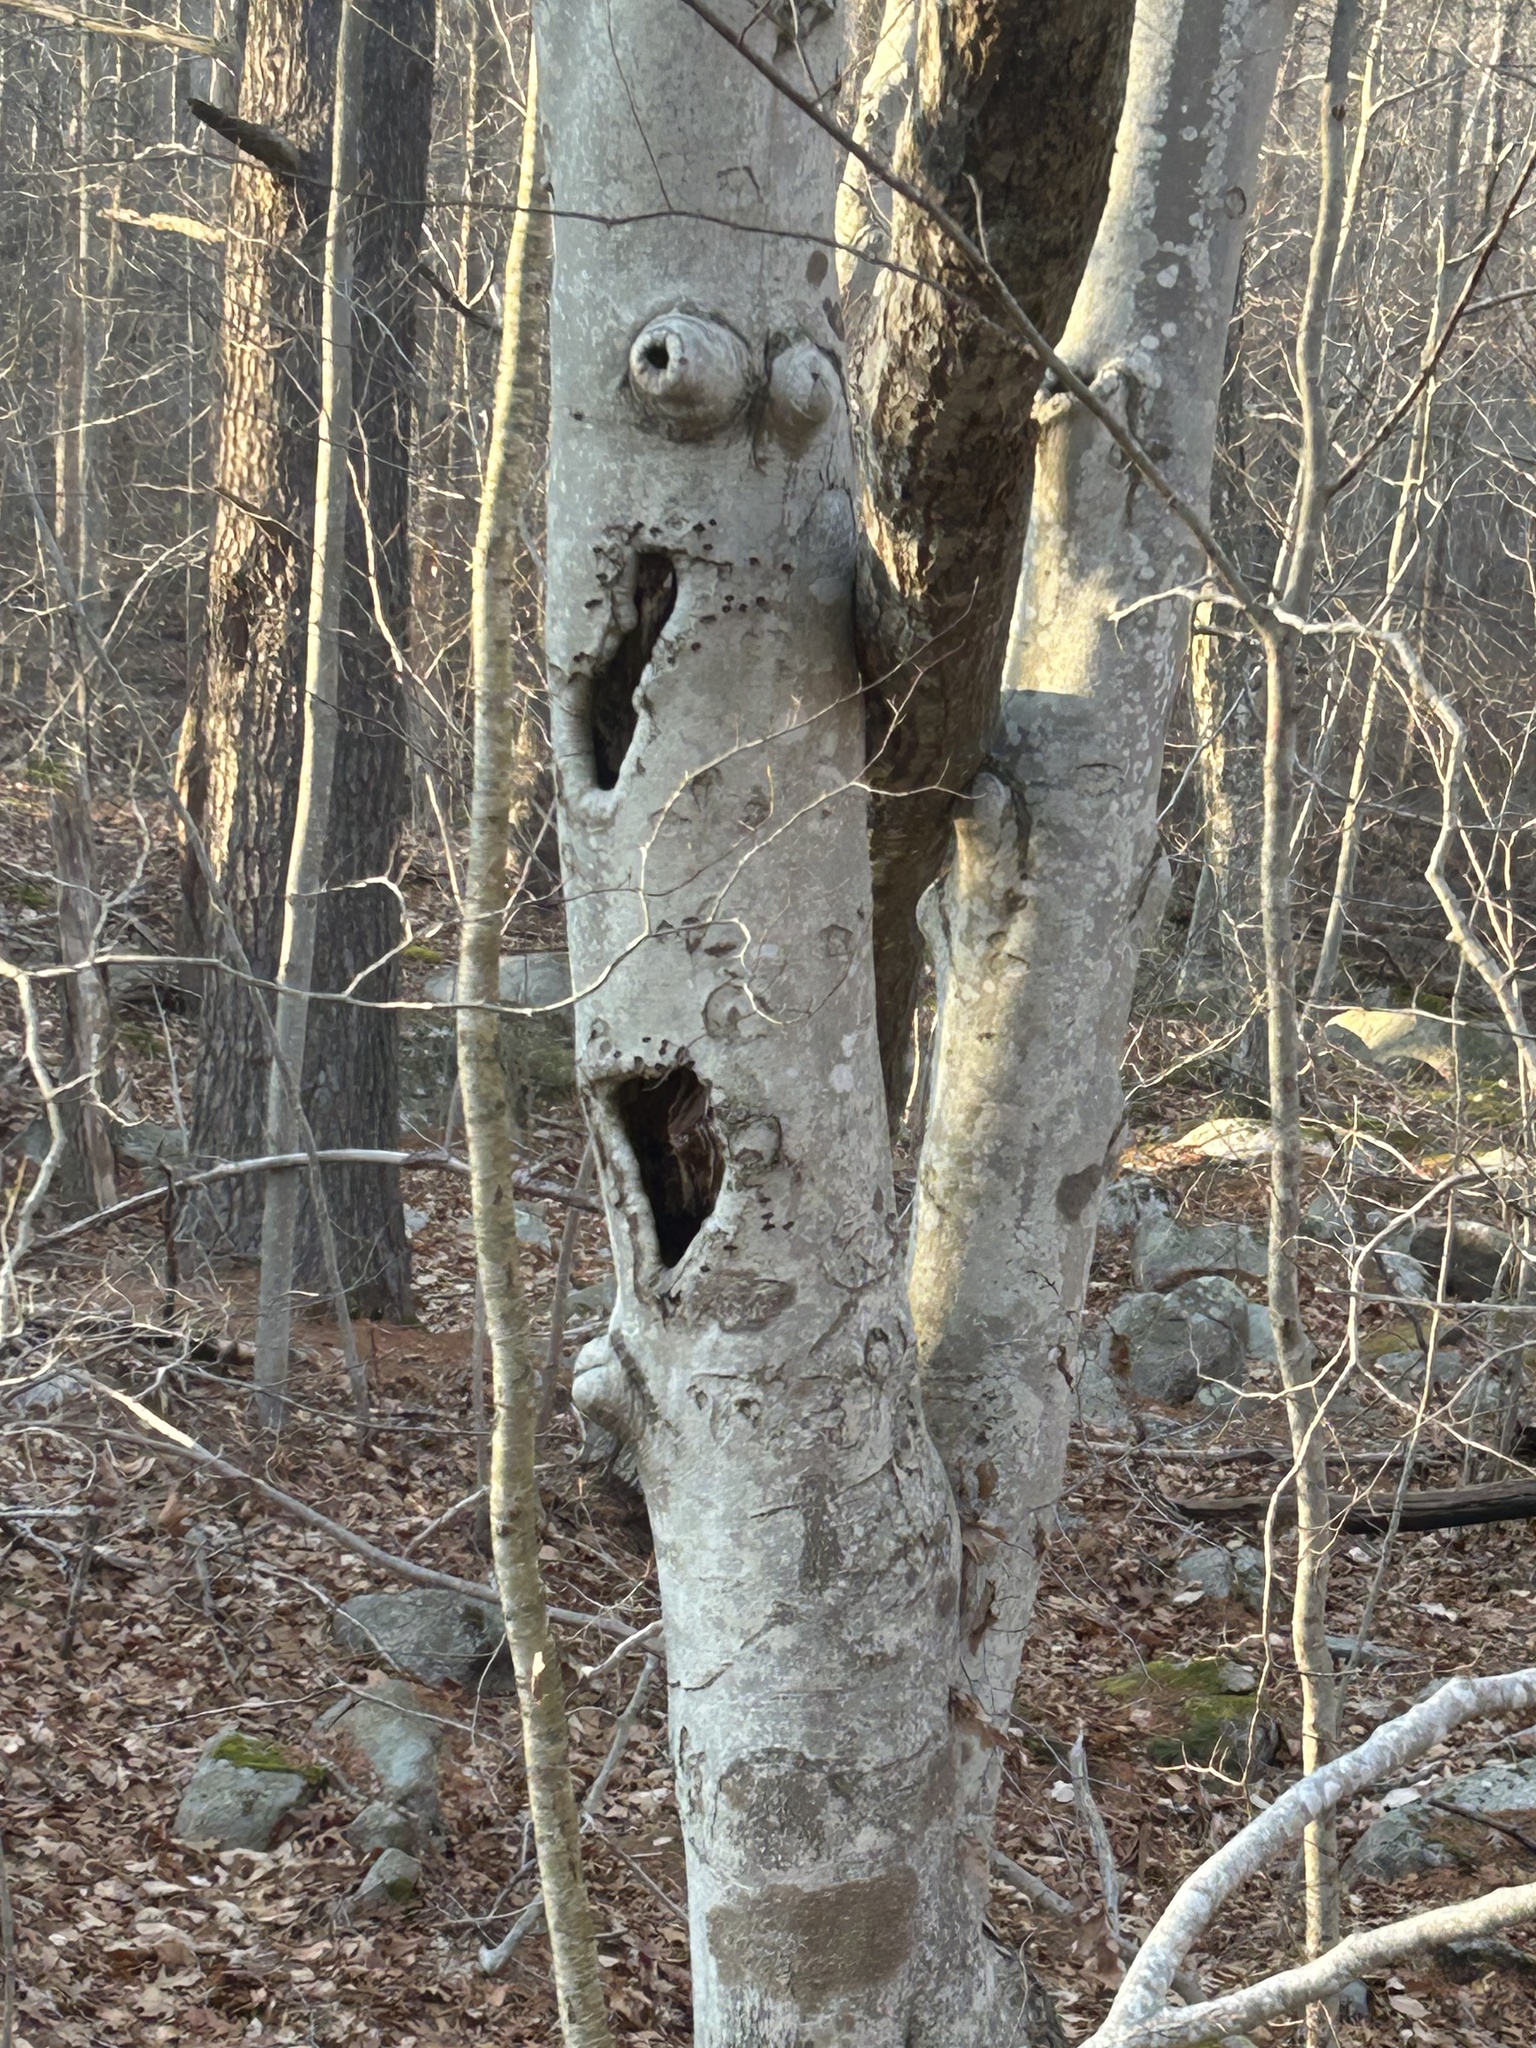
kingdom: Plantae
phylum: Tracheophyta
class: Magnoliopsida
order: Fagales
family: Fagaceae
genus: Fagus
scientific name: Fagus grandifolia
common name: American beech
